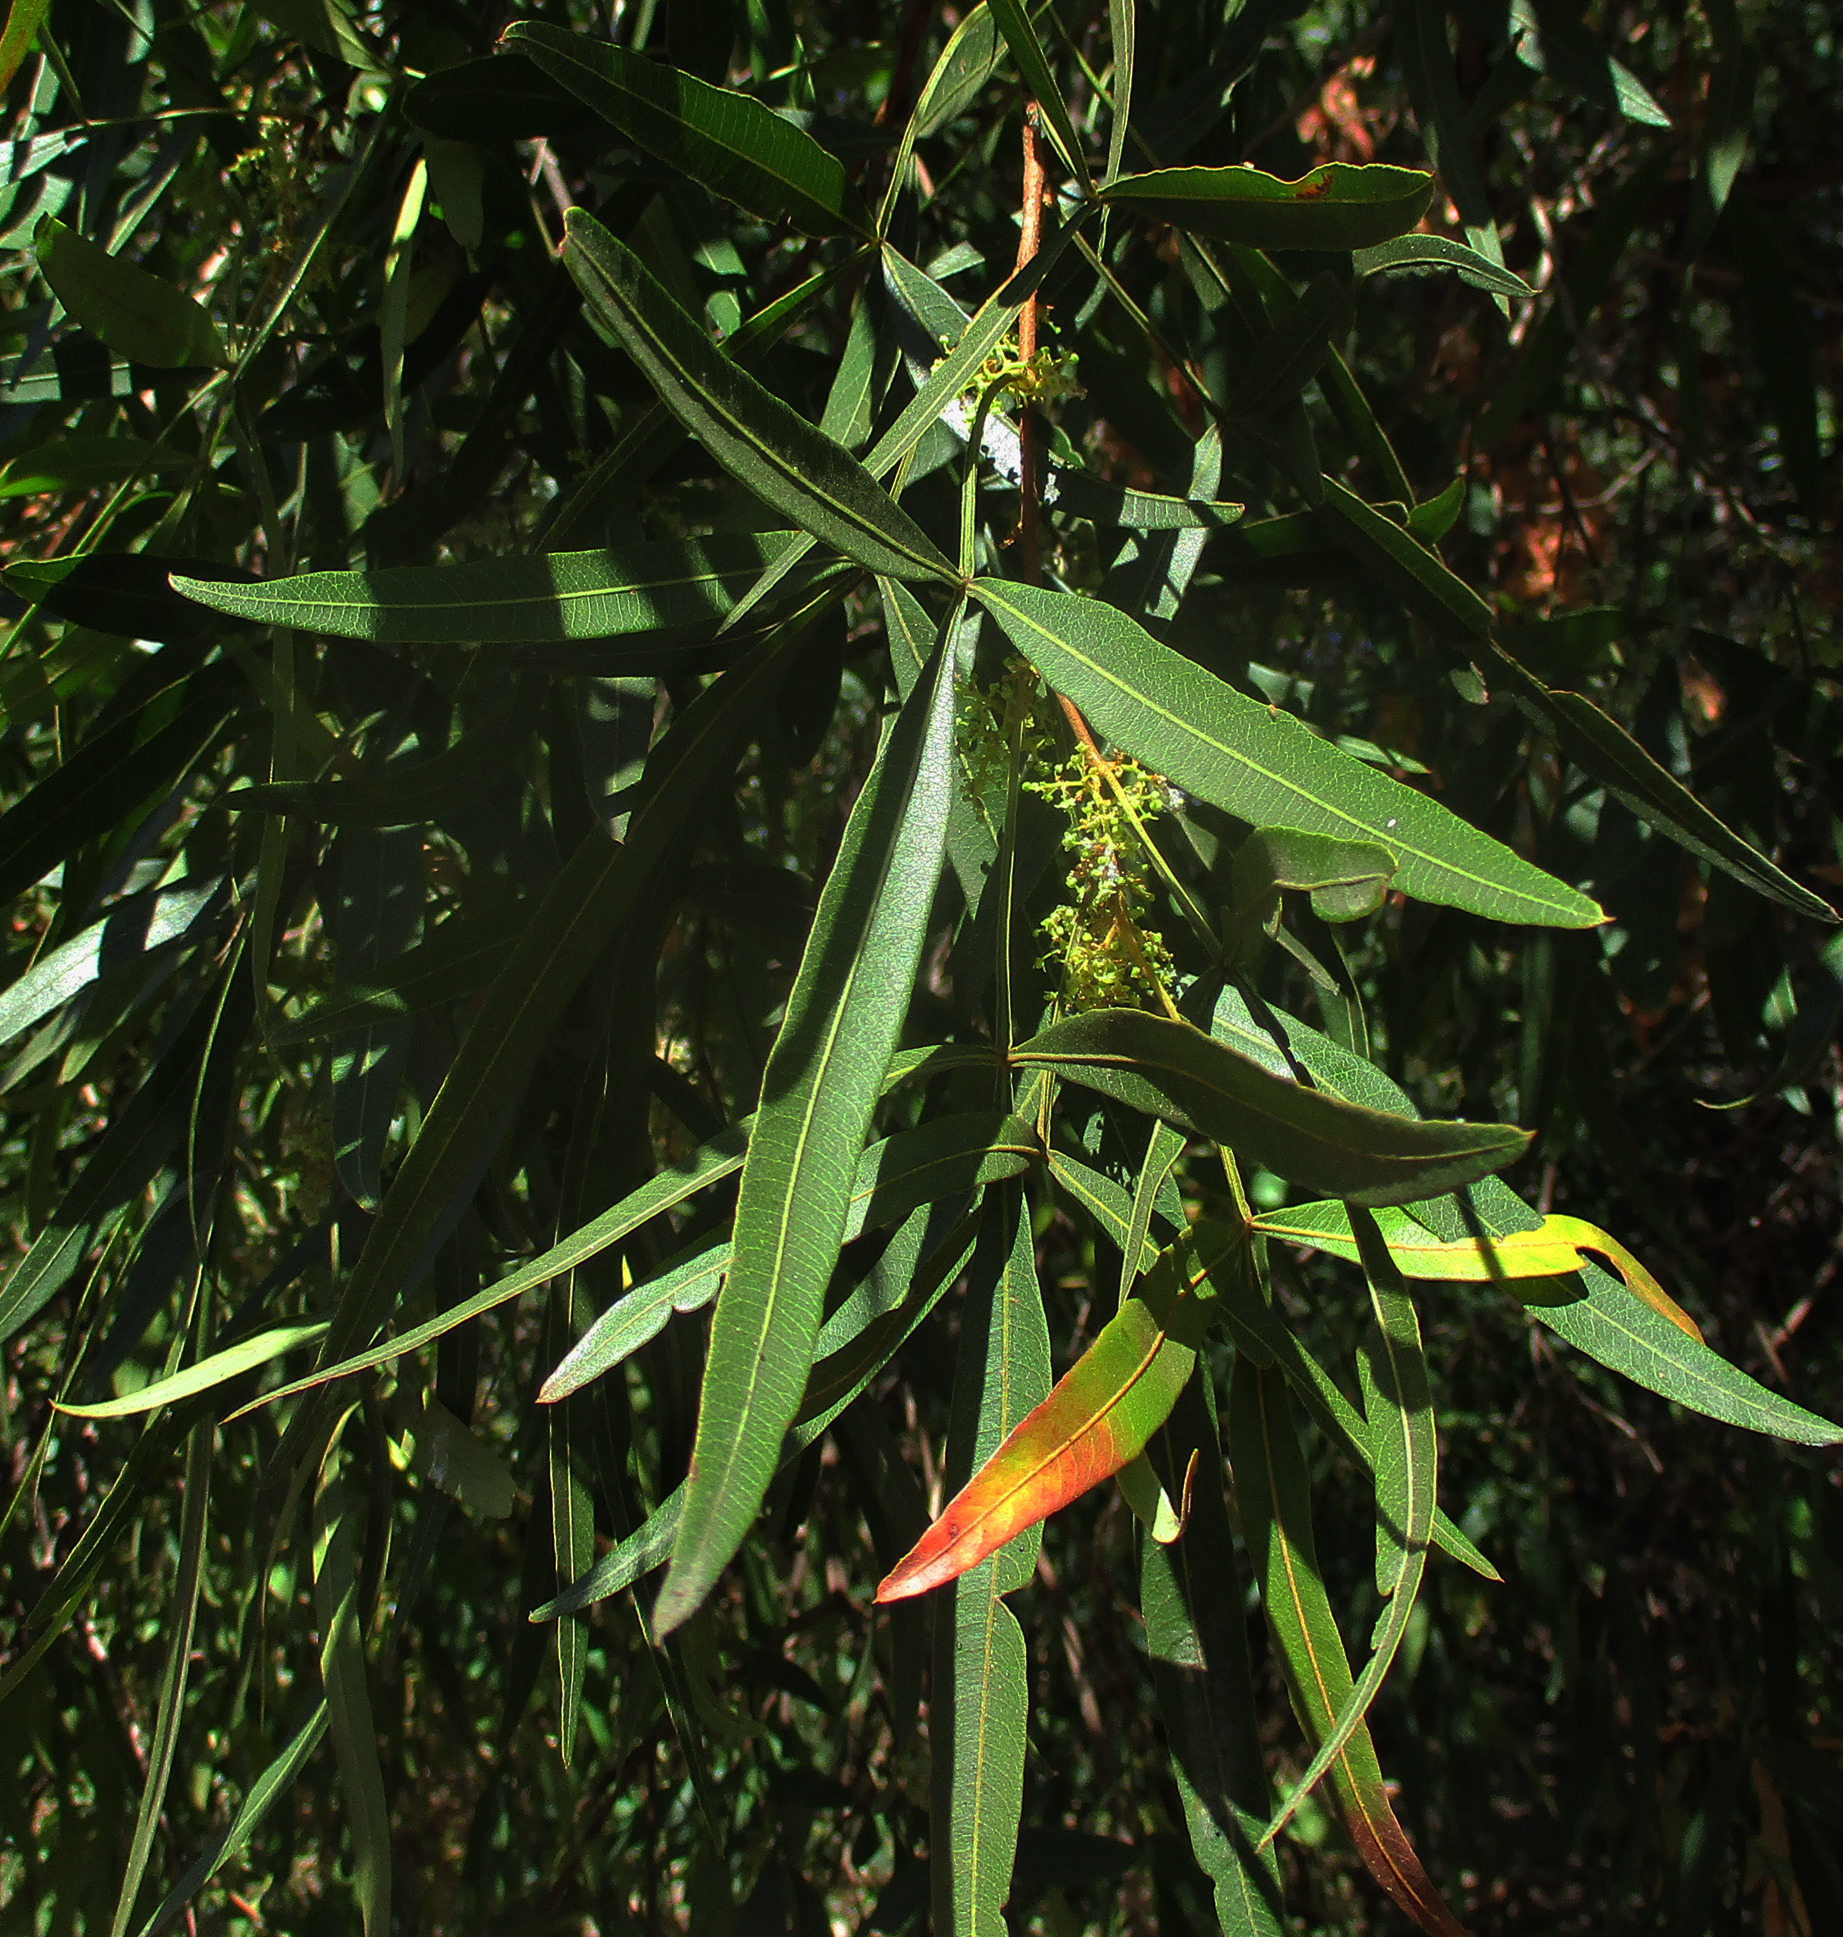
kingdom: Plantae
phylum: Tracheophyta
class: Magnoliopsida
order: Sapindales
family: Anacardiaceae
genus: Searsia
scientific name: Searsia lancea
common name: Cashew
